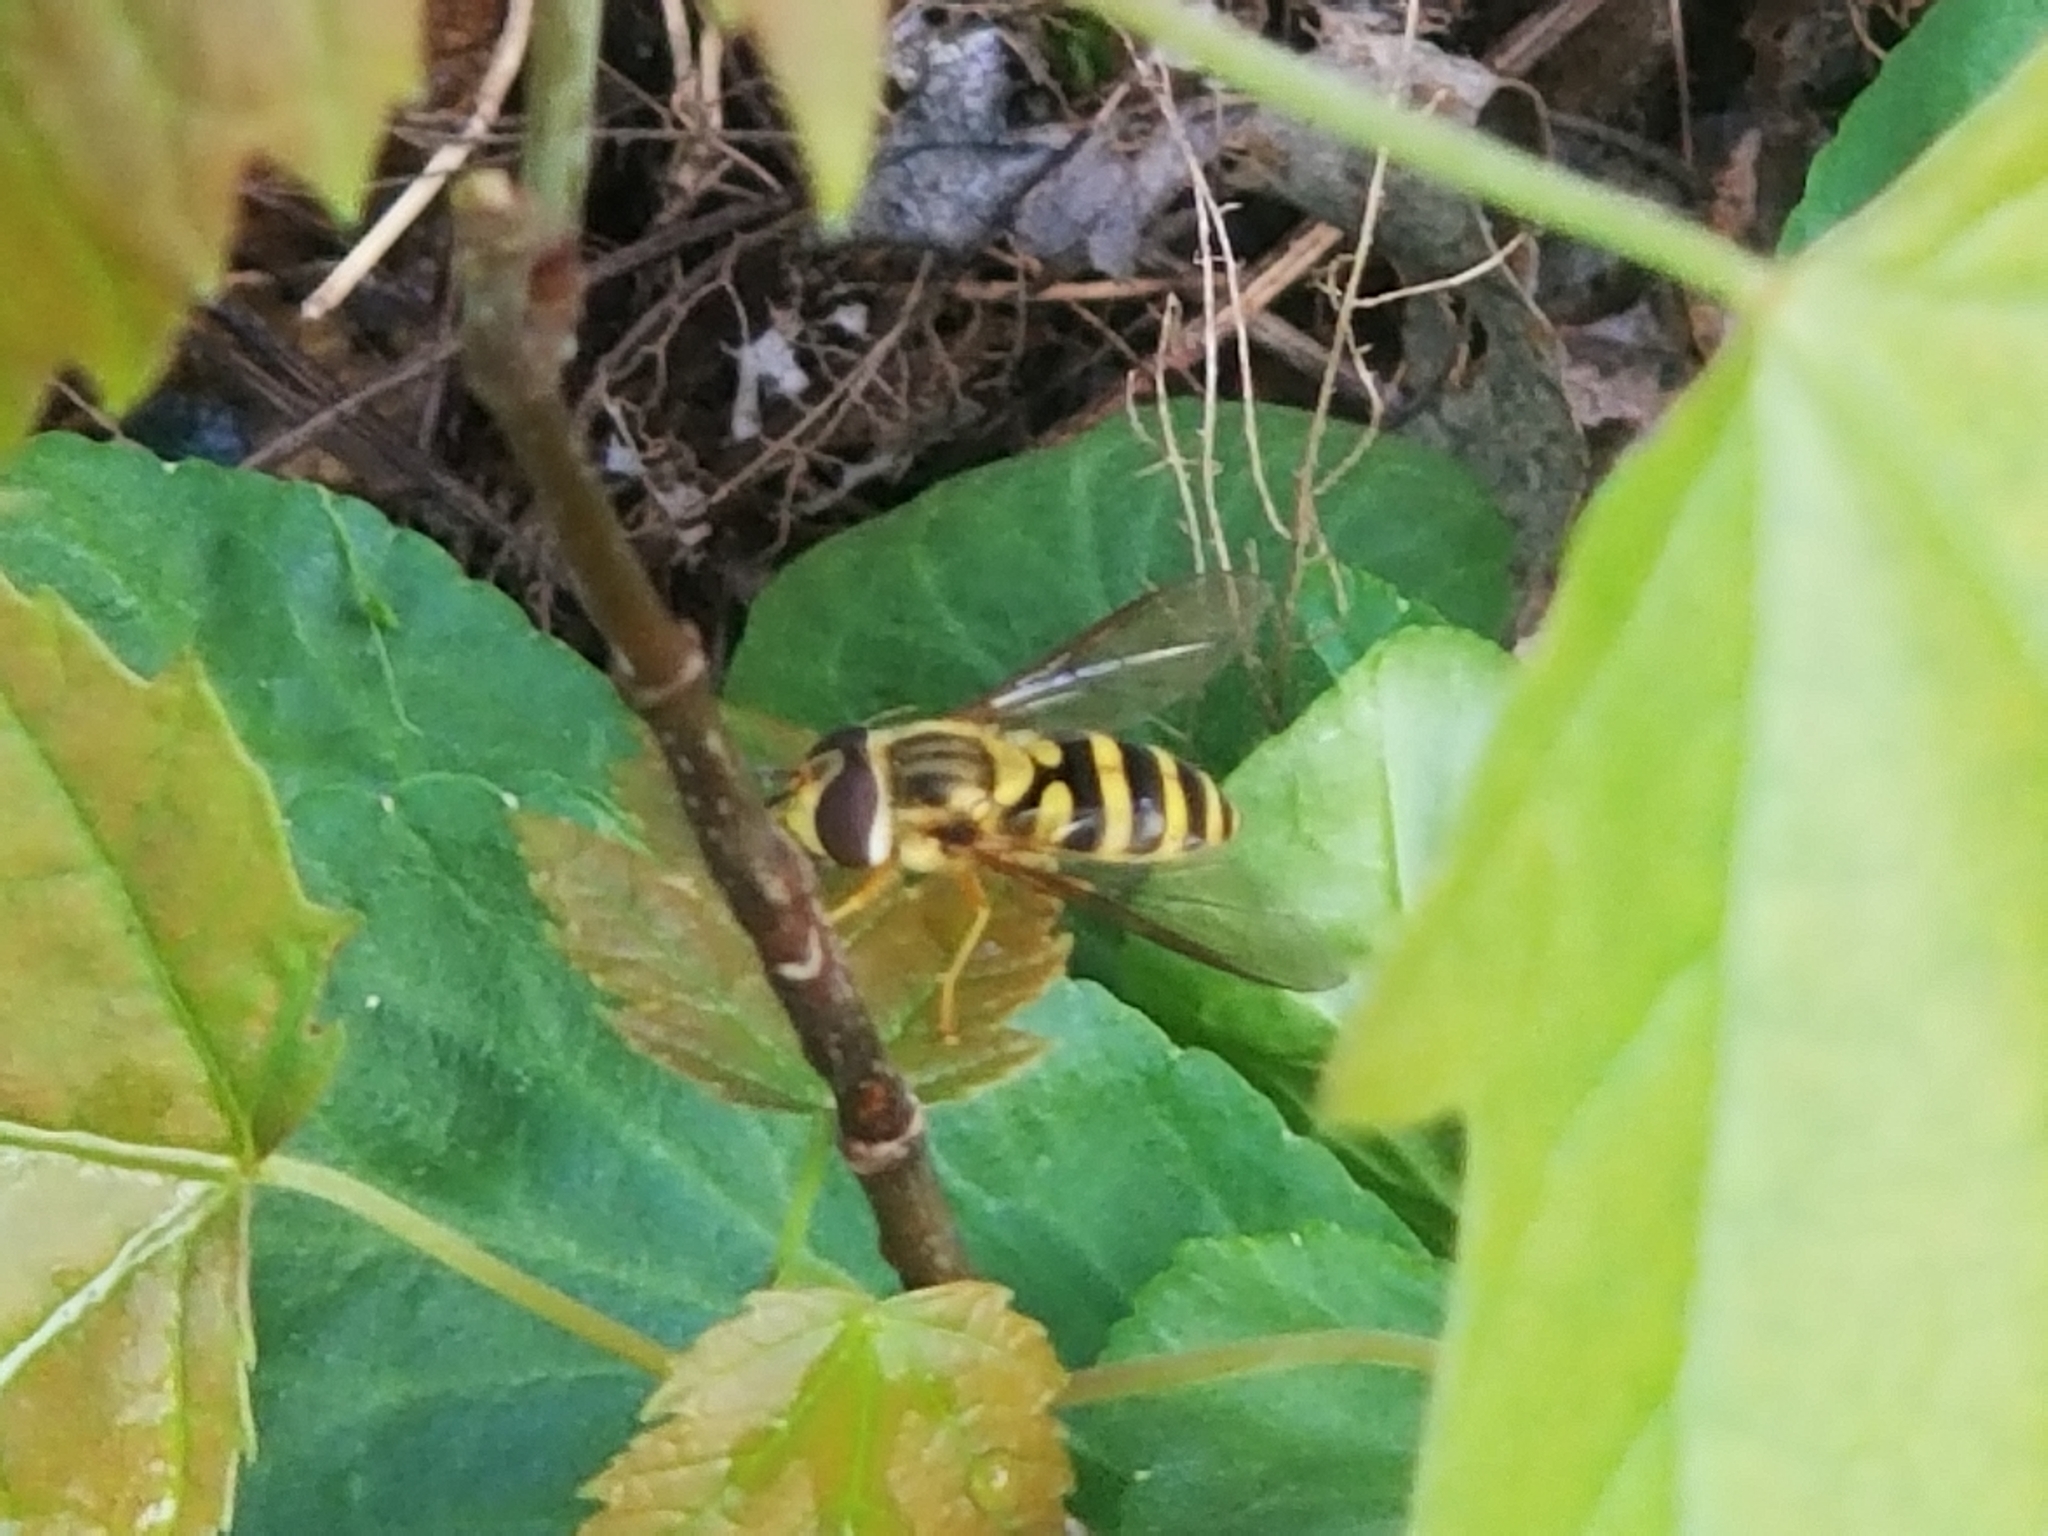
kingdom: Animalia
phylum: Arthropoda
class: Insecta
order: Diptera
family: Syrphidae
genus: Syrphus
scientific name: Syrphus knabi
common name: Eastern flower fly
